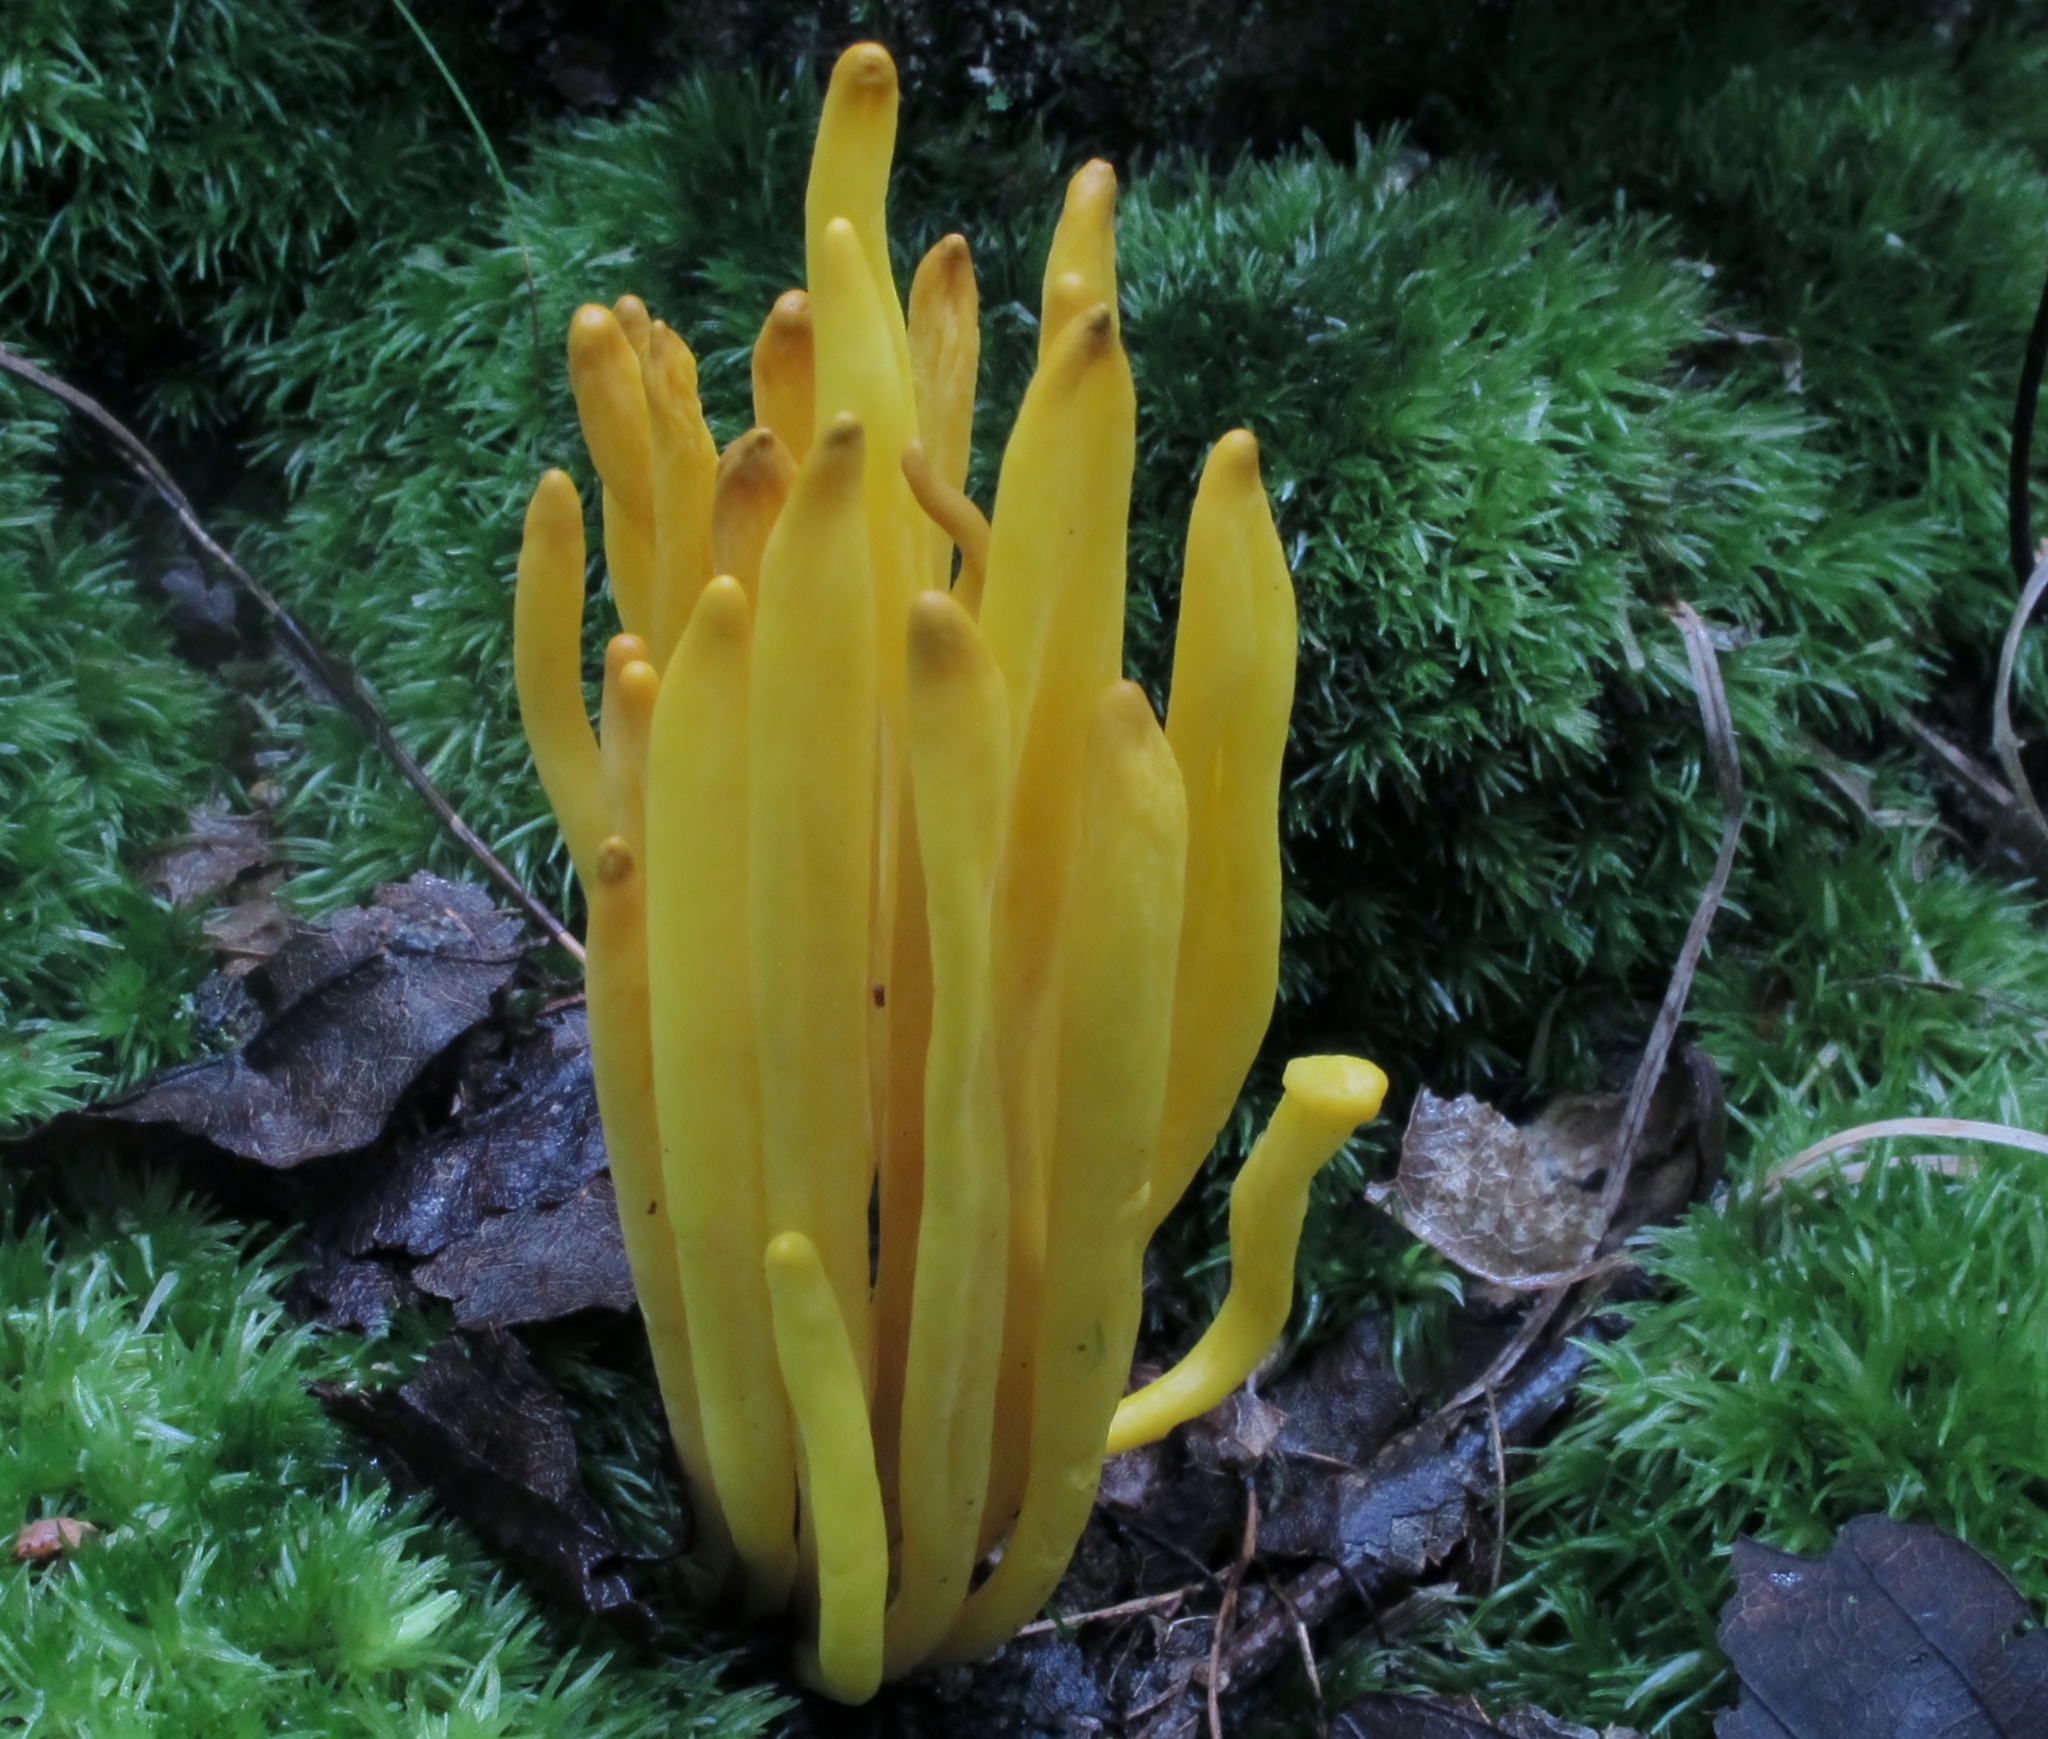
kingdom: Fungi
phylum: Basidiomycota
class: Agaricomycetes
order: Agaricales
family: Clavariaceae
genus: Clavulinopsis
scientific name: Clavulinopsis fusiformis
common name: Golden spindles
